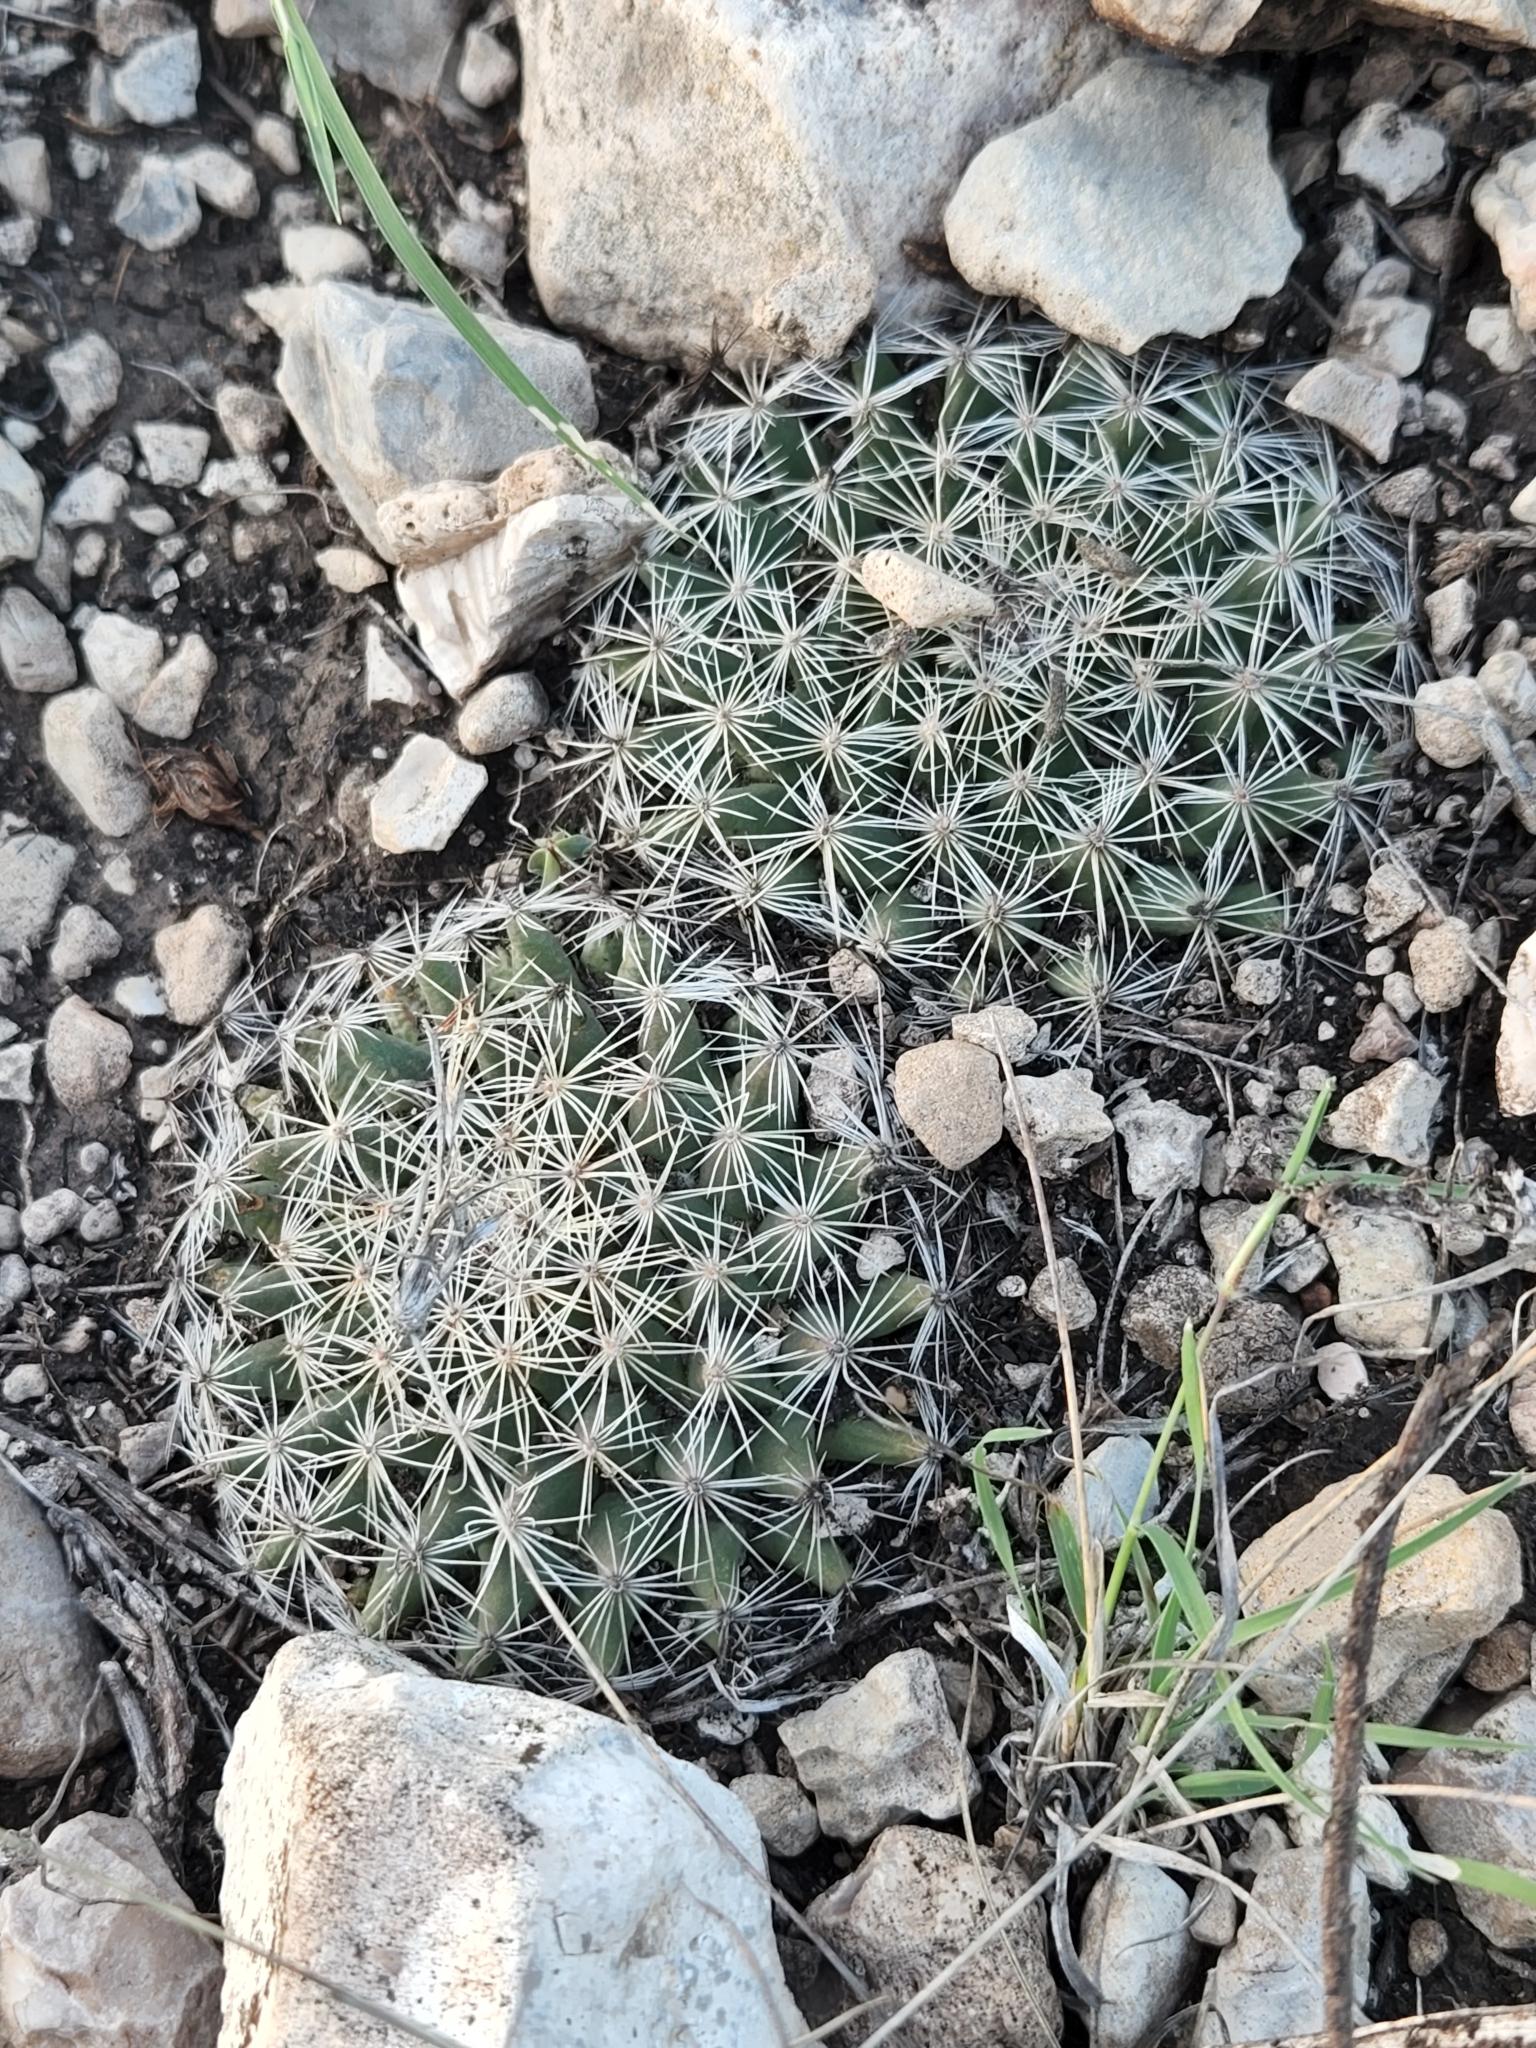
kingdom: Plantae
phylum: Tracheophyta
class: Magnoliopsida
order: Caryophyllales
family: Cactaceae
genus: Mammillaria
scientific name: Mammillaria heyderi
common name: Little nipple cactus
